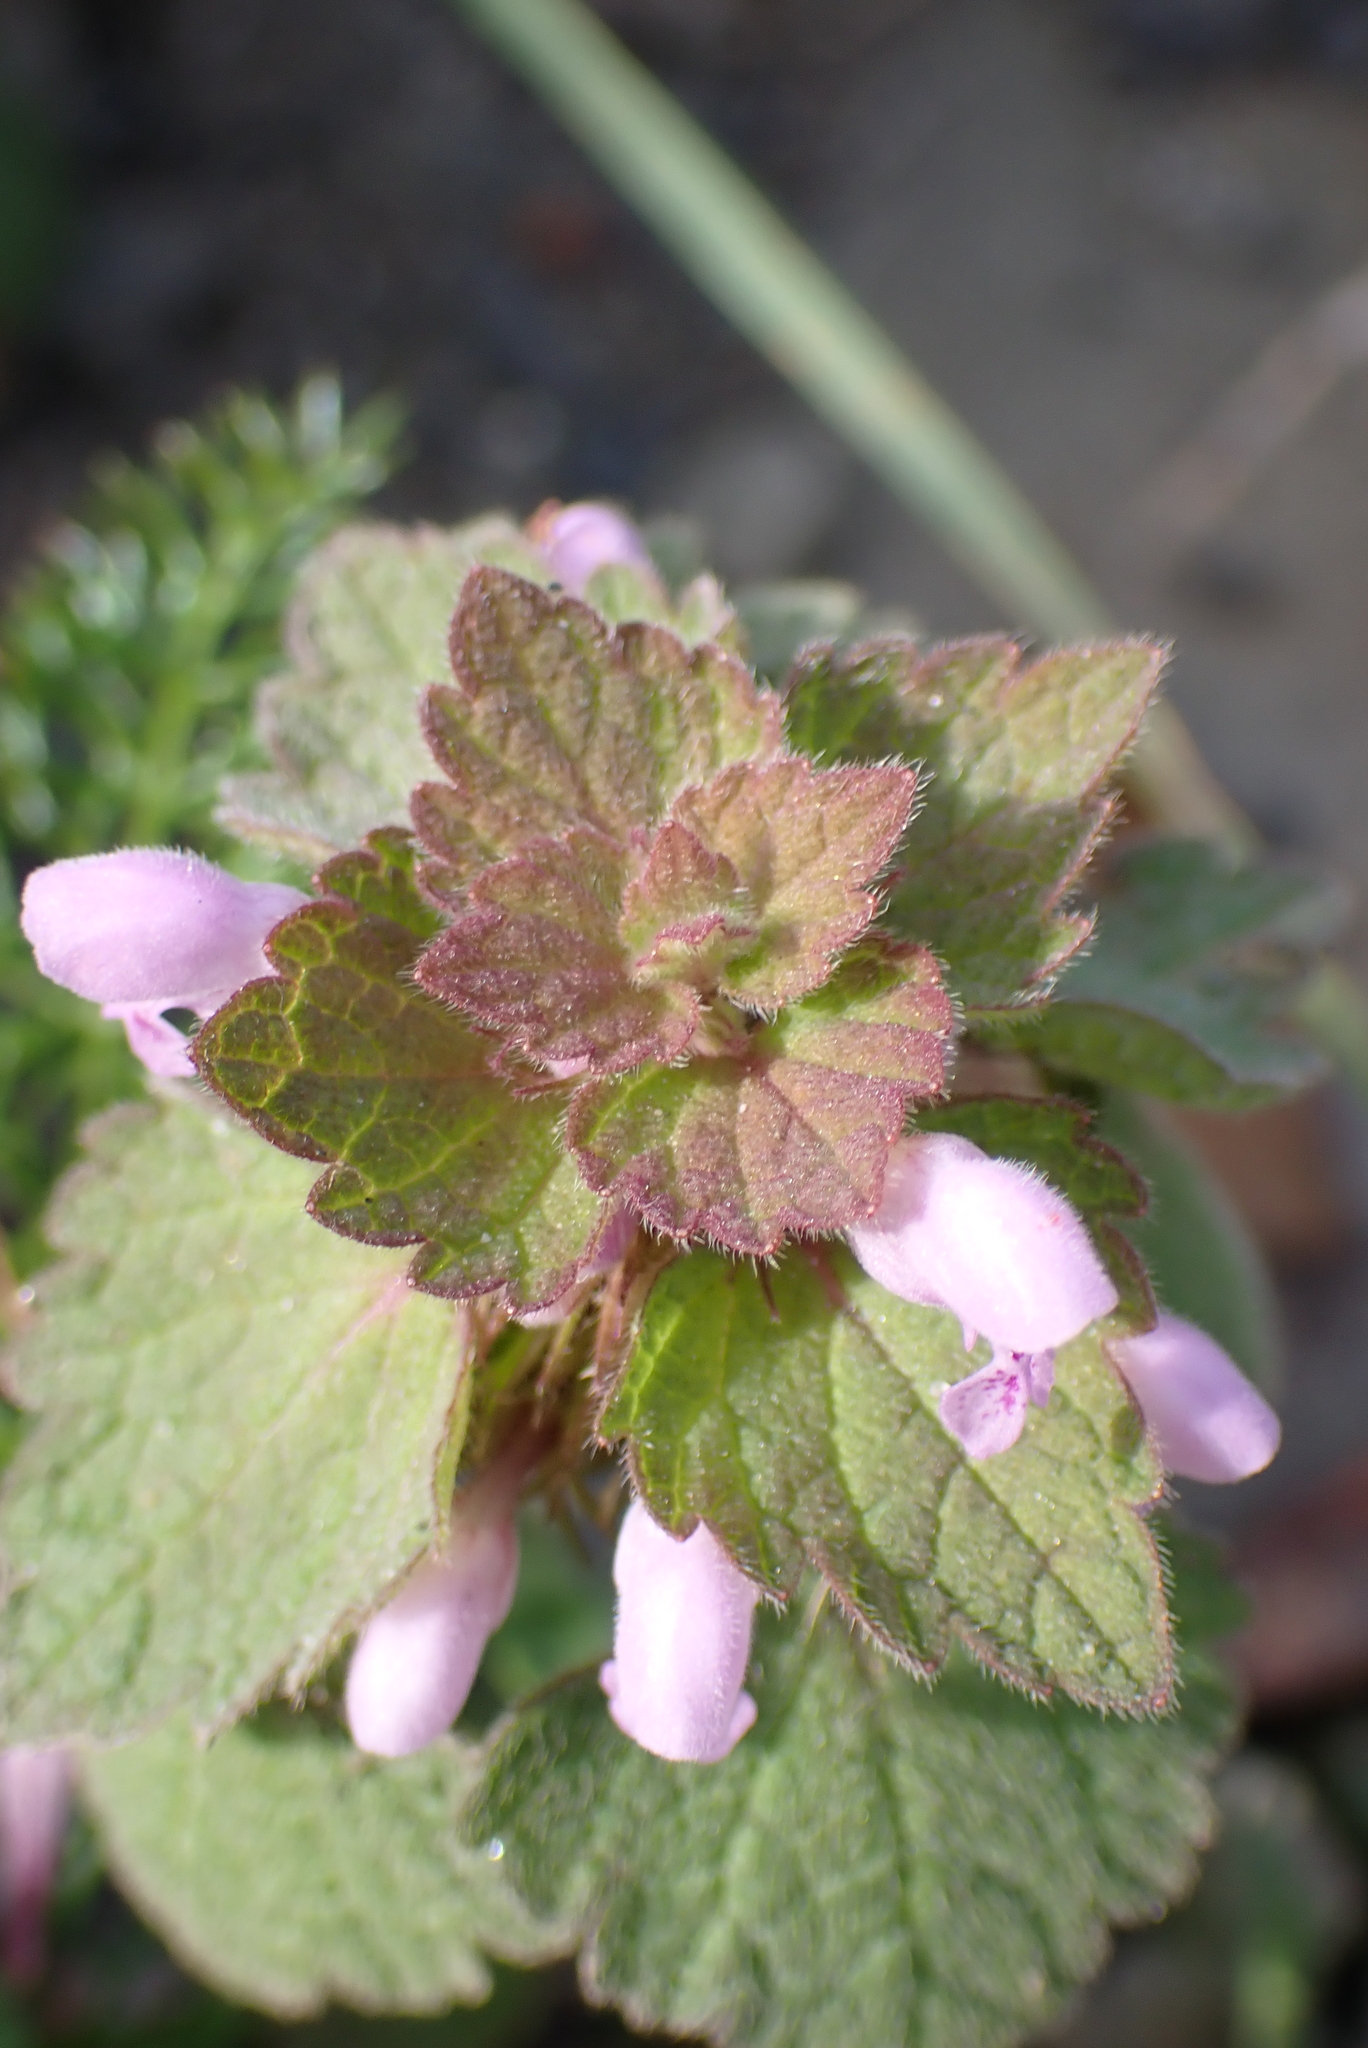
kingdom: Plantae
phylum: Tracheophyta
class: Magnoliopsida
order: Lamiales
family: Lamiaceae
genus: Lamium
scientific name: Lamium purpureum
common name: Red dead-nettle
